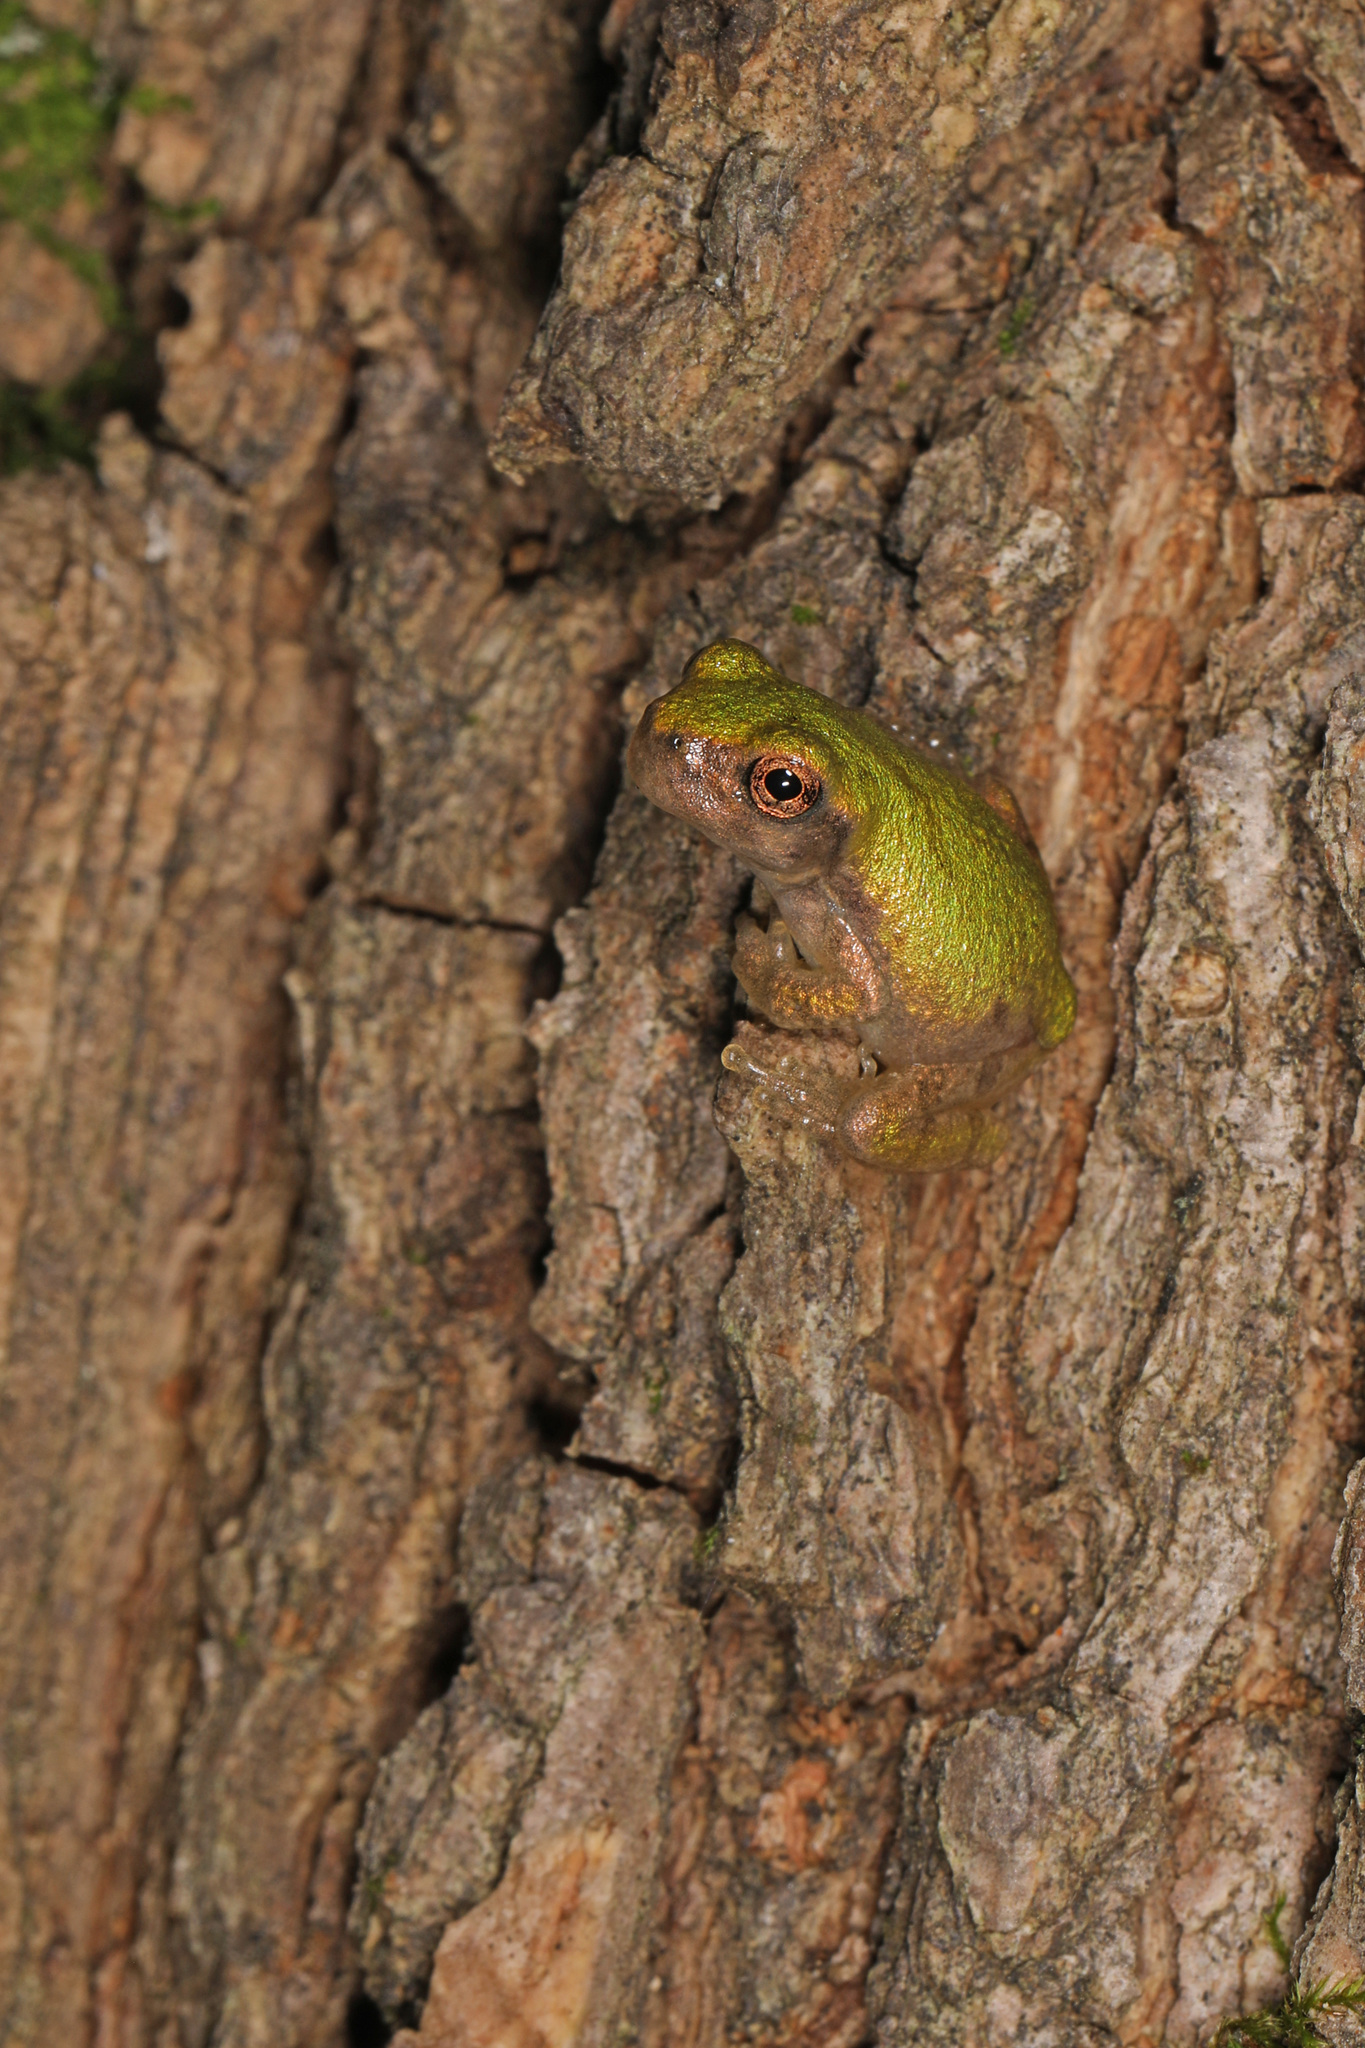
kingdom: Animalia
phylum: Chordata
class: Amphibia
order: Anura
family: Hylidae
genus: Dryophytes
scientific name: Dryophytes chrysoscelis
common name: Cope's gray treefrog
